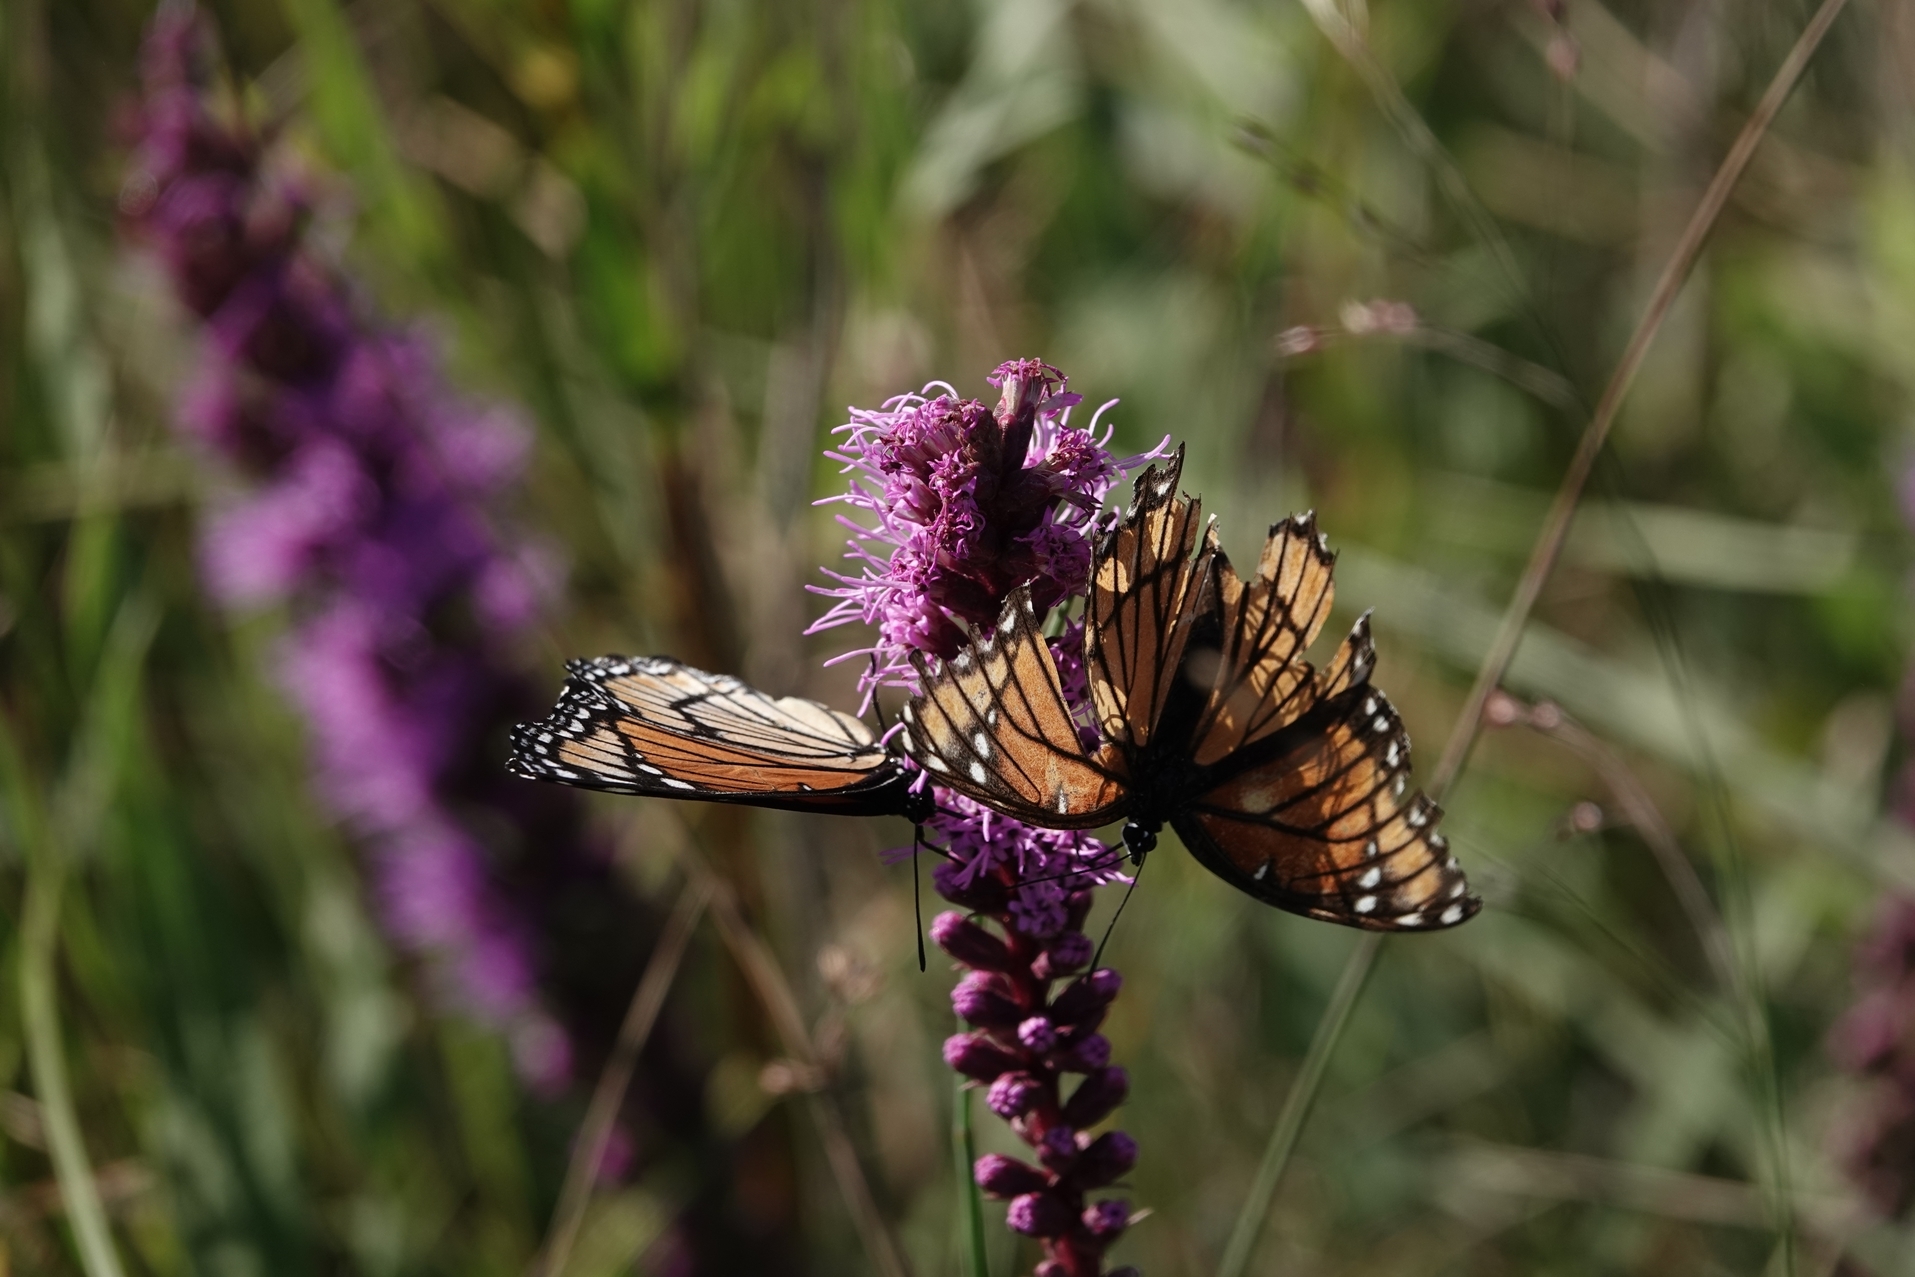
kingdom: Animalia
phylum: Arthropoda
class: Insecta
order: Lepidoptera
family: Nymphalidae
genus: Limenitis
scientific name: Limenitis archippus
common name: Viceroy
